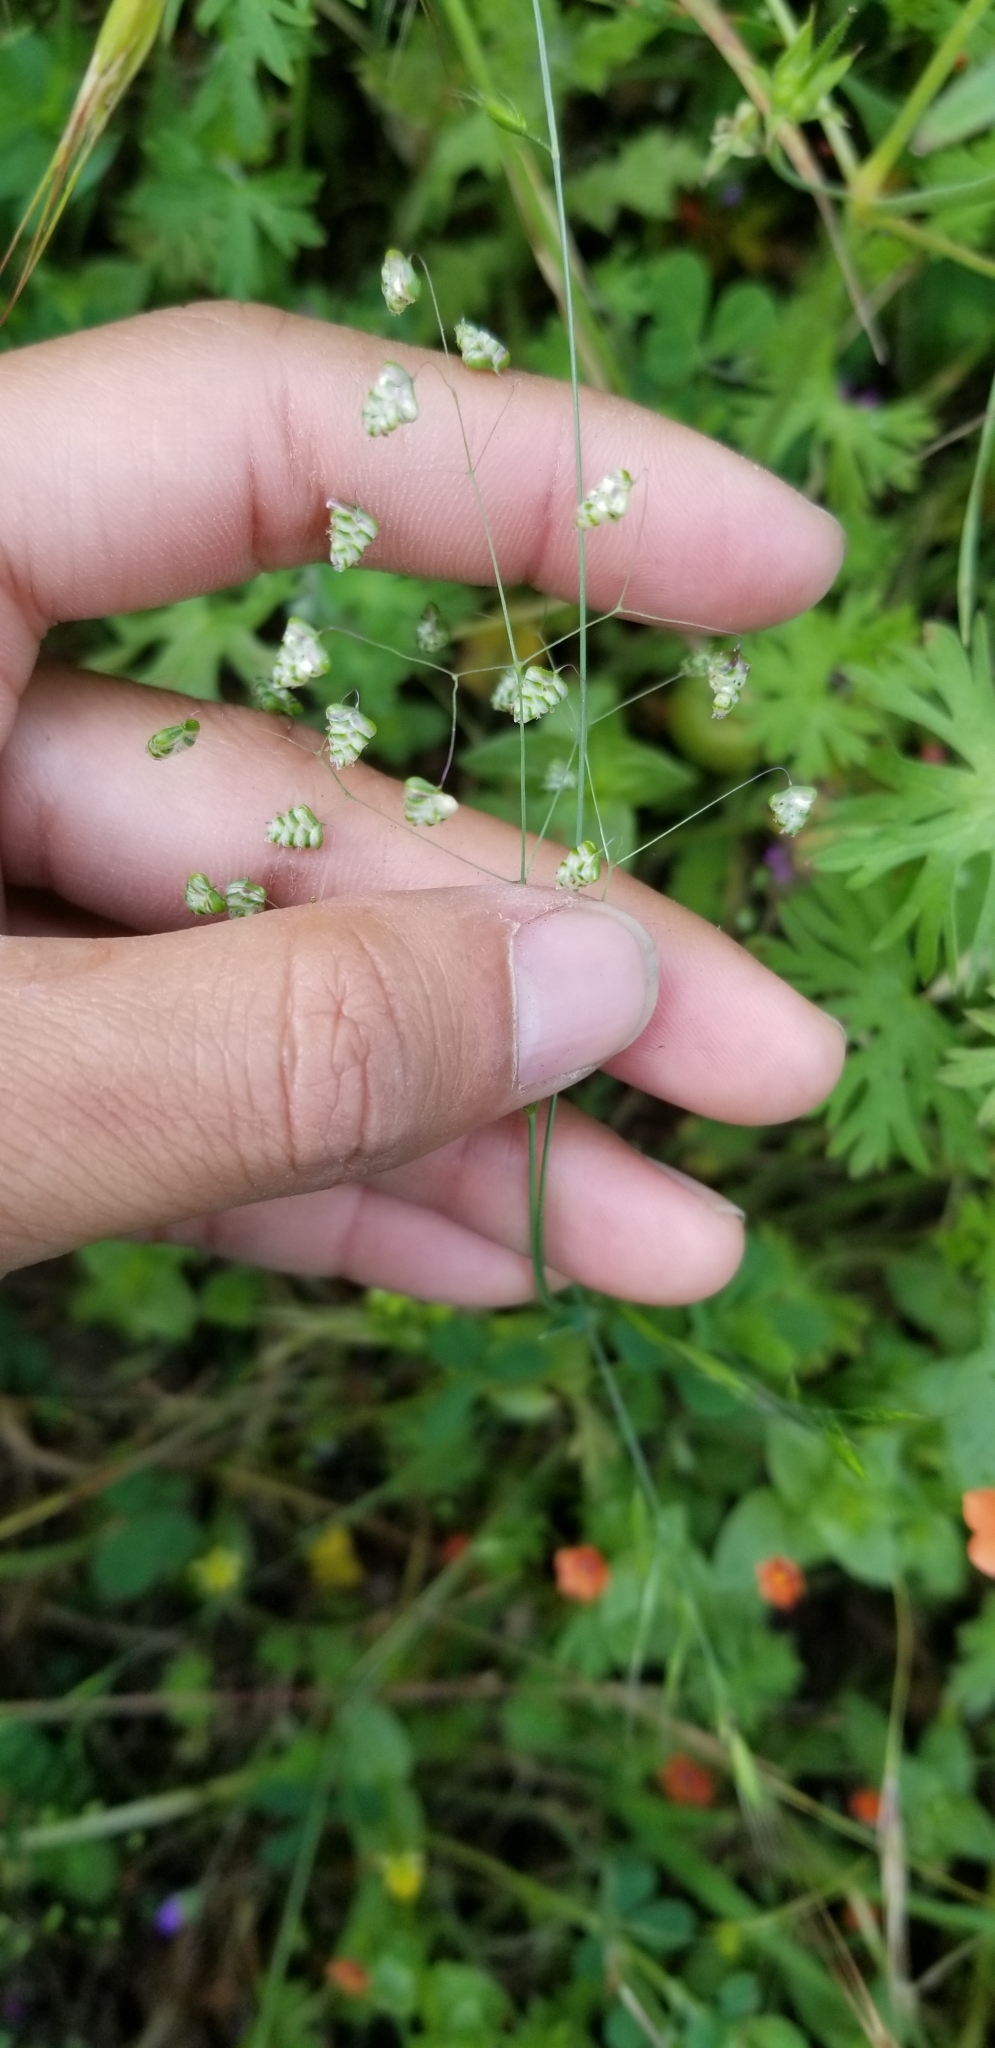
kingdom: Plantae
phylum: Tracheophyta
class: Liliopsida
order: Poales
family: Poaceae
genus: Briza
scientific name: Briza minor
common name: Lesser quaking-grass
